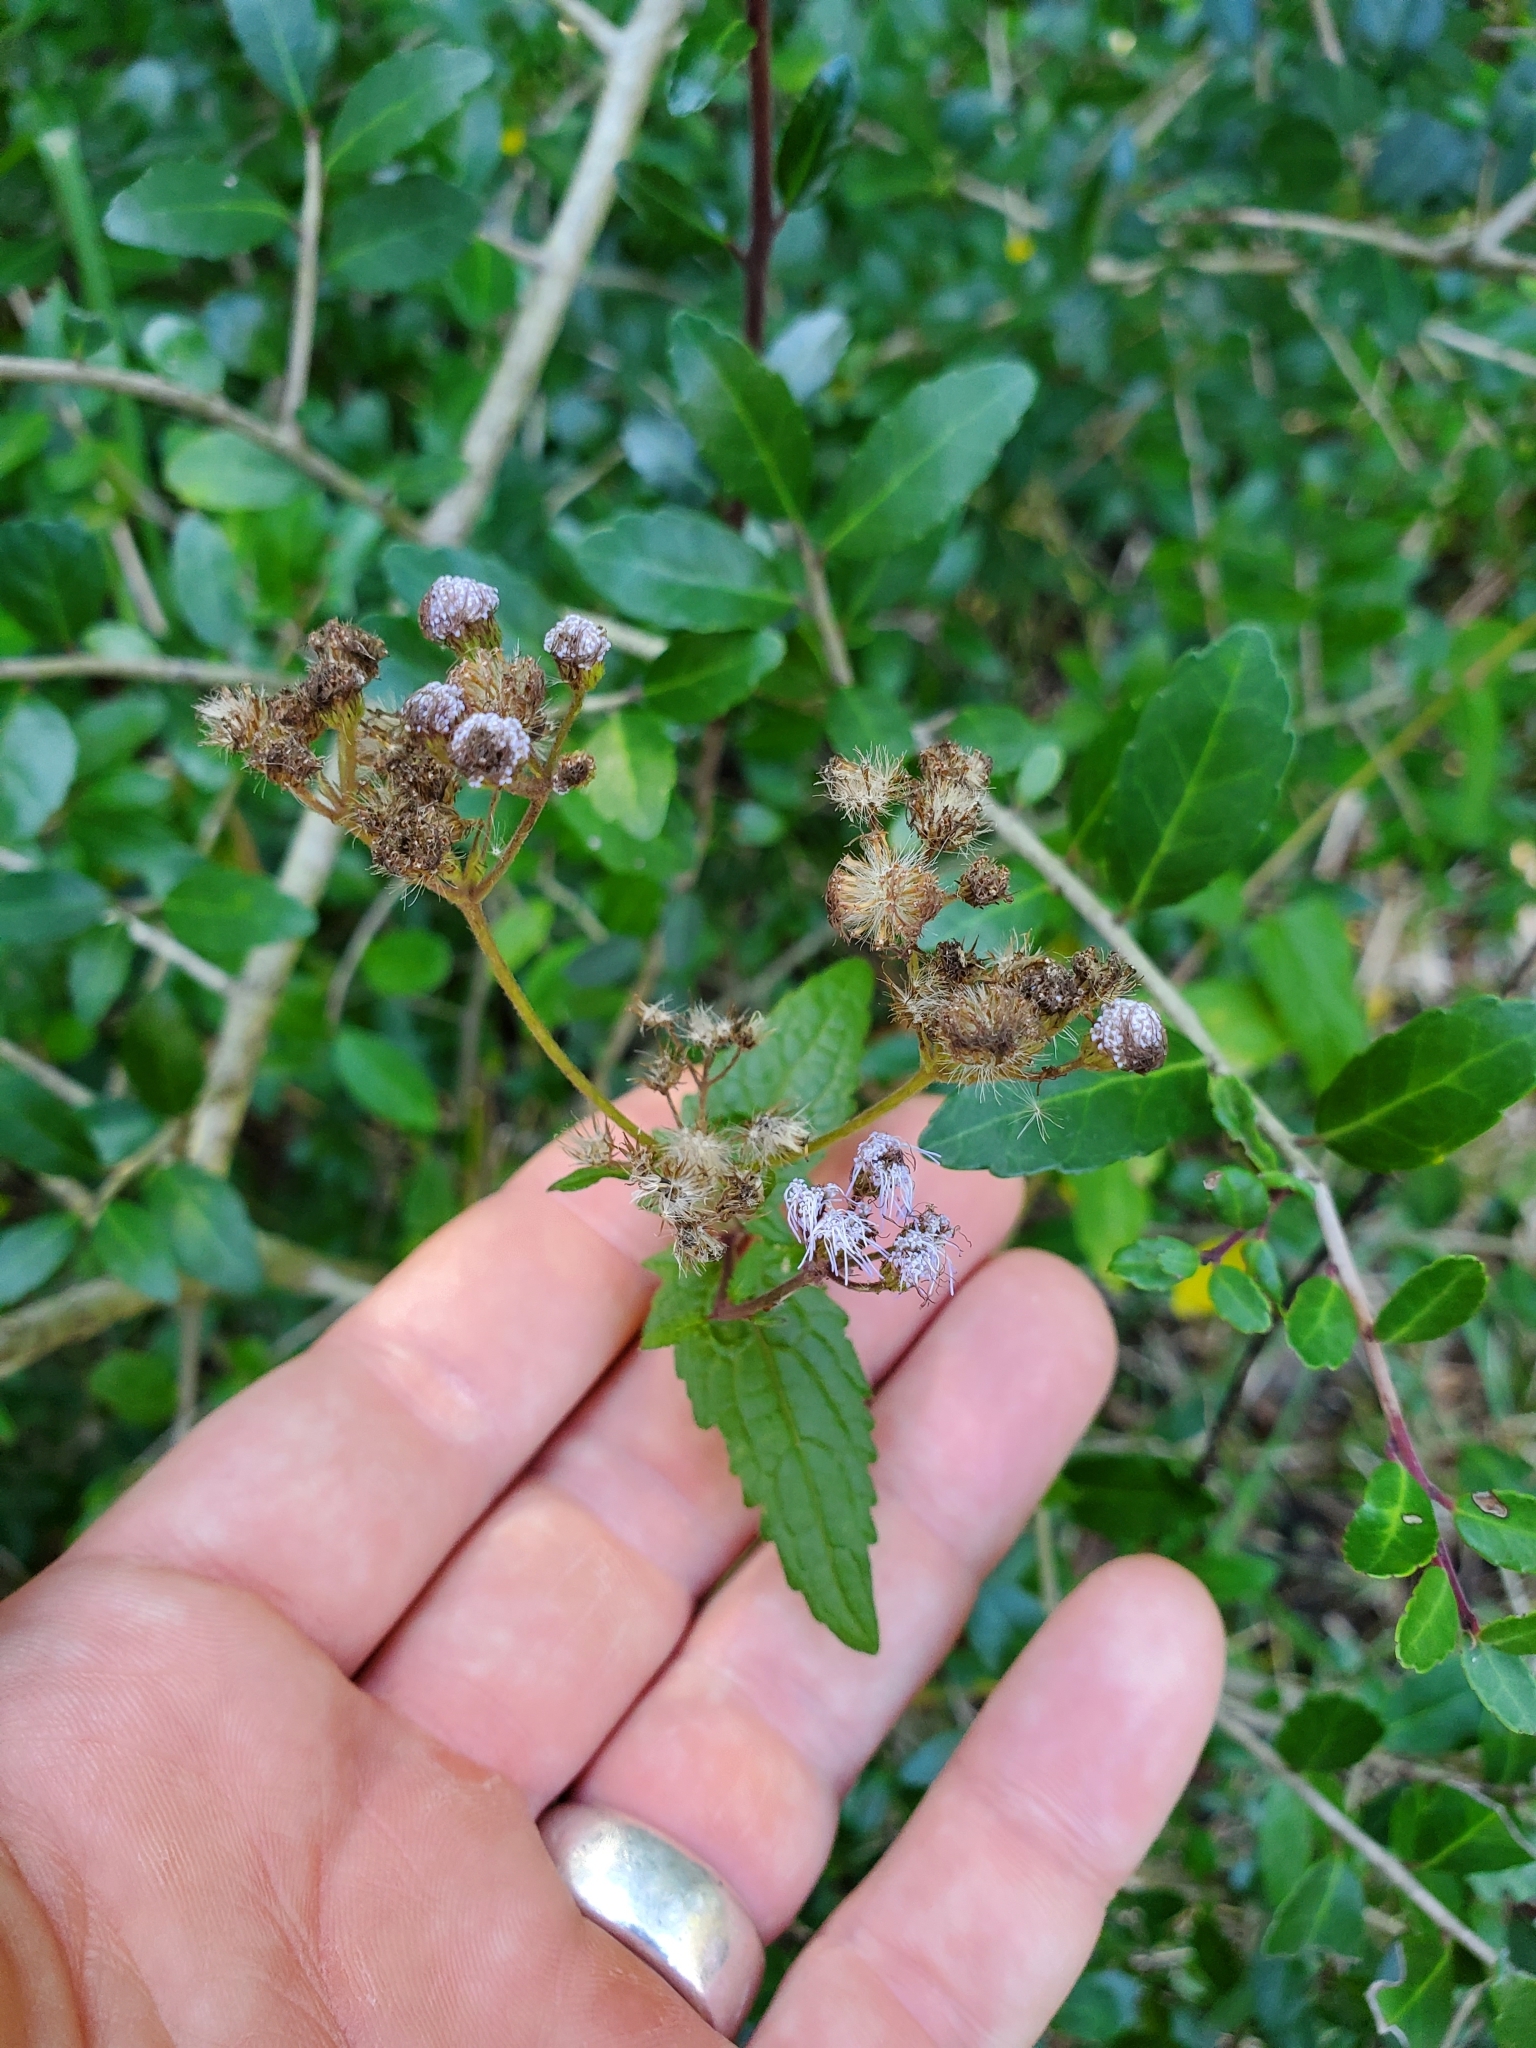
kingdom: Plantae
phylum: Tracheophyta
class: Magnoliopsida
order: Asterales
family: Asteraceae
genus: Conoclinium
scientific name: Conoclinium coelestinum
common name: Blue mistflower
